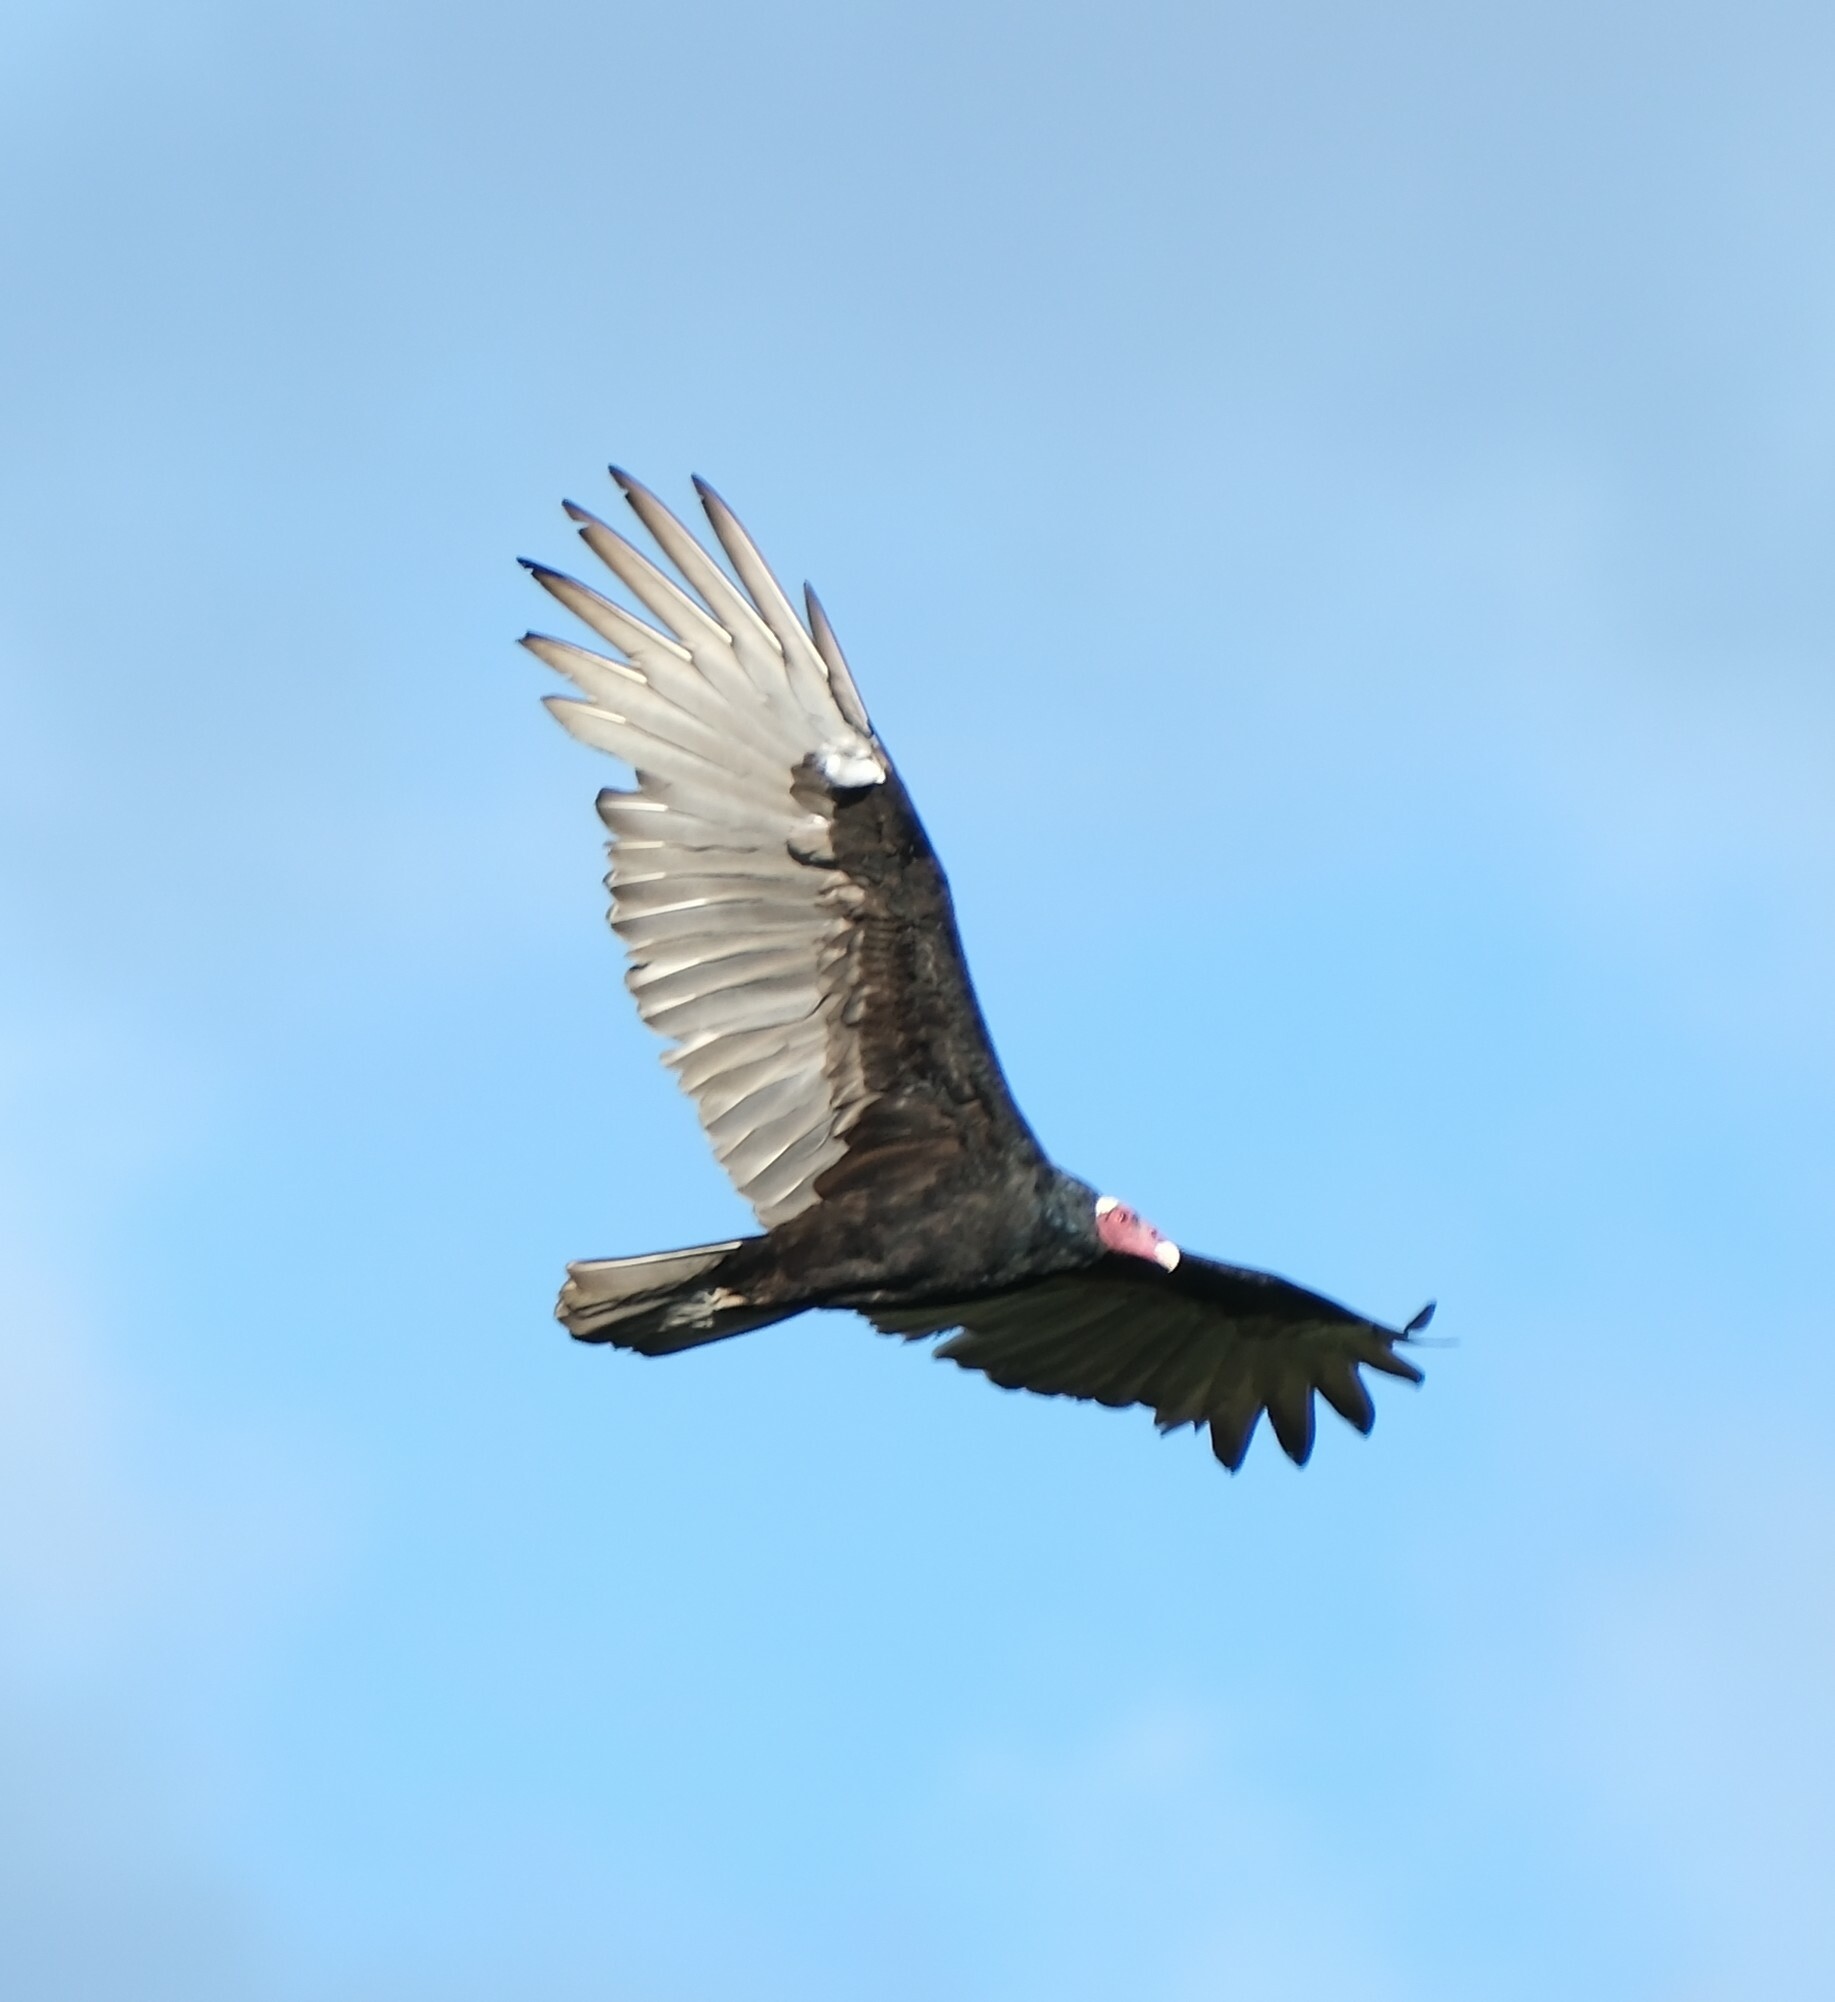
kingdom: Animalia
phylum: Chordata
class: Aves
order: Accipitriformes
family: Cathartidae
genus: Cathartes
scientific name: Cathartes aura
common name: Turkey vulture
